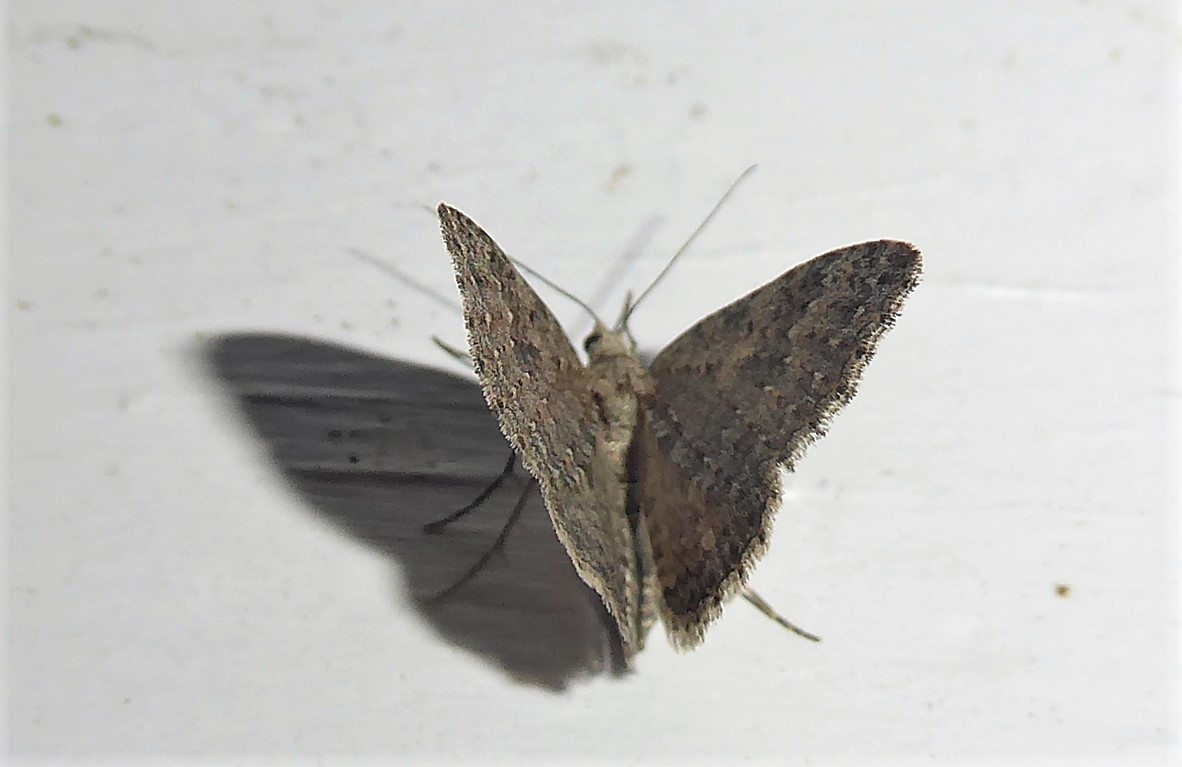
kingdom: Animalia
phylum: Arthropoda
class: Insecta
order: Lepidoptera
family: Geometridae
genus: Helastia
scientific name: Helastia corcularia
